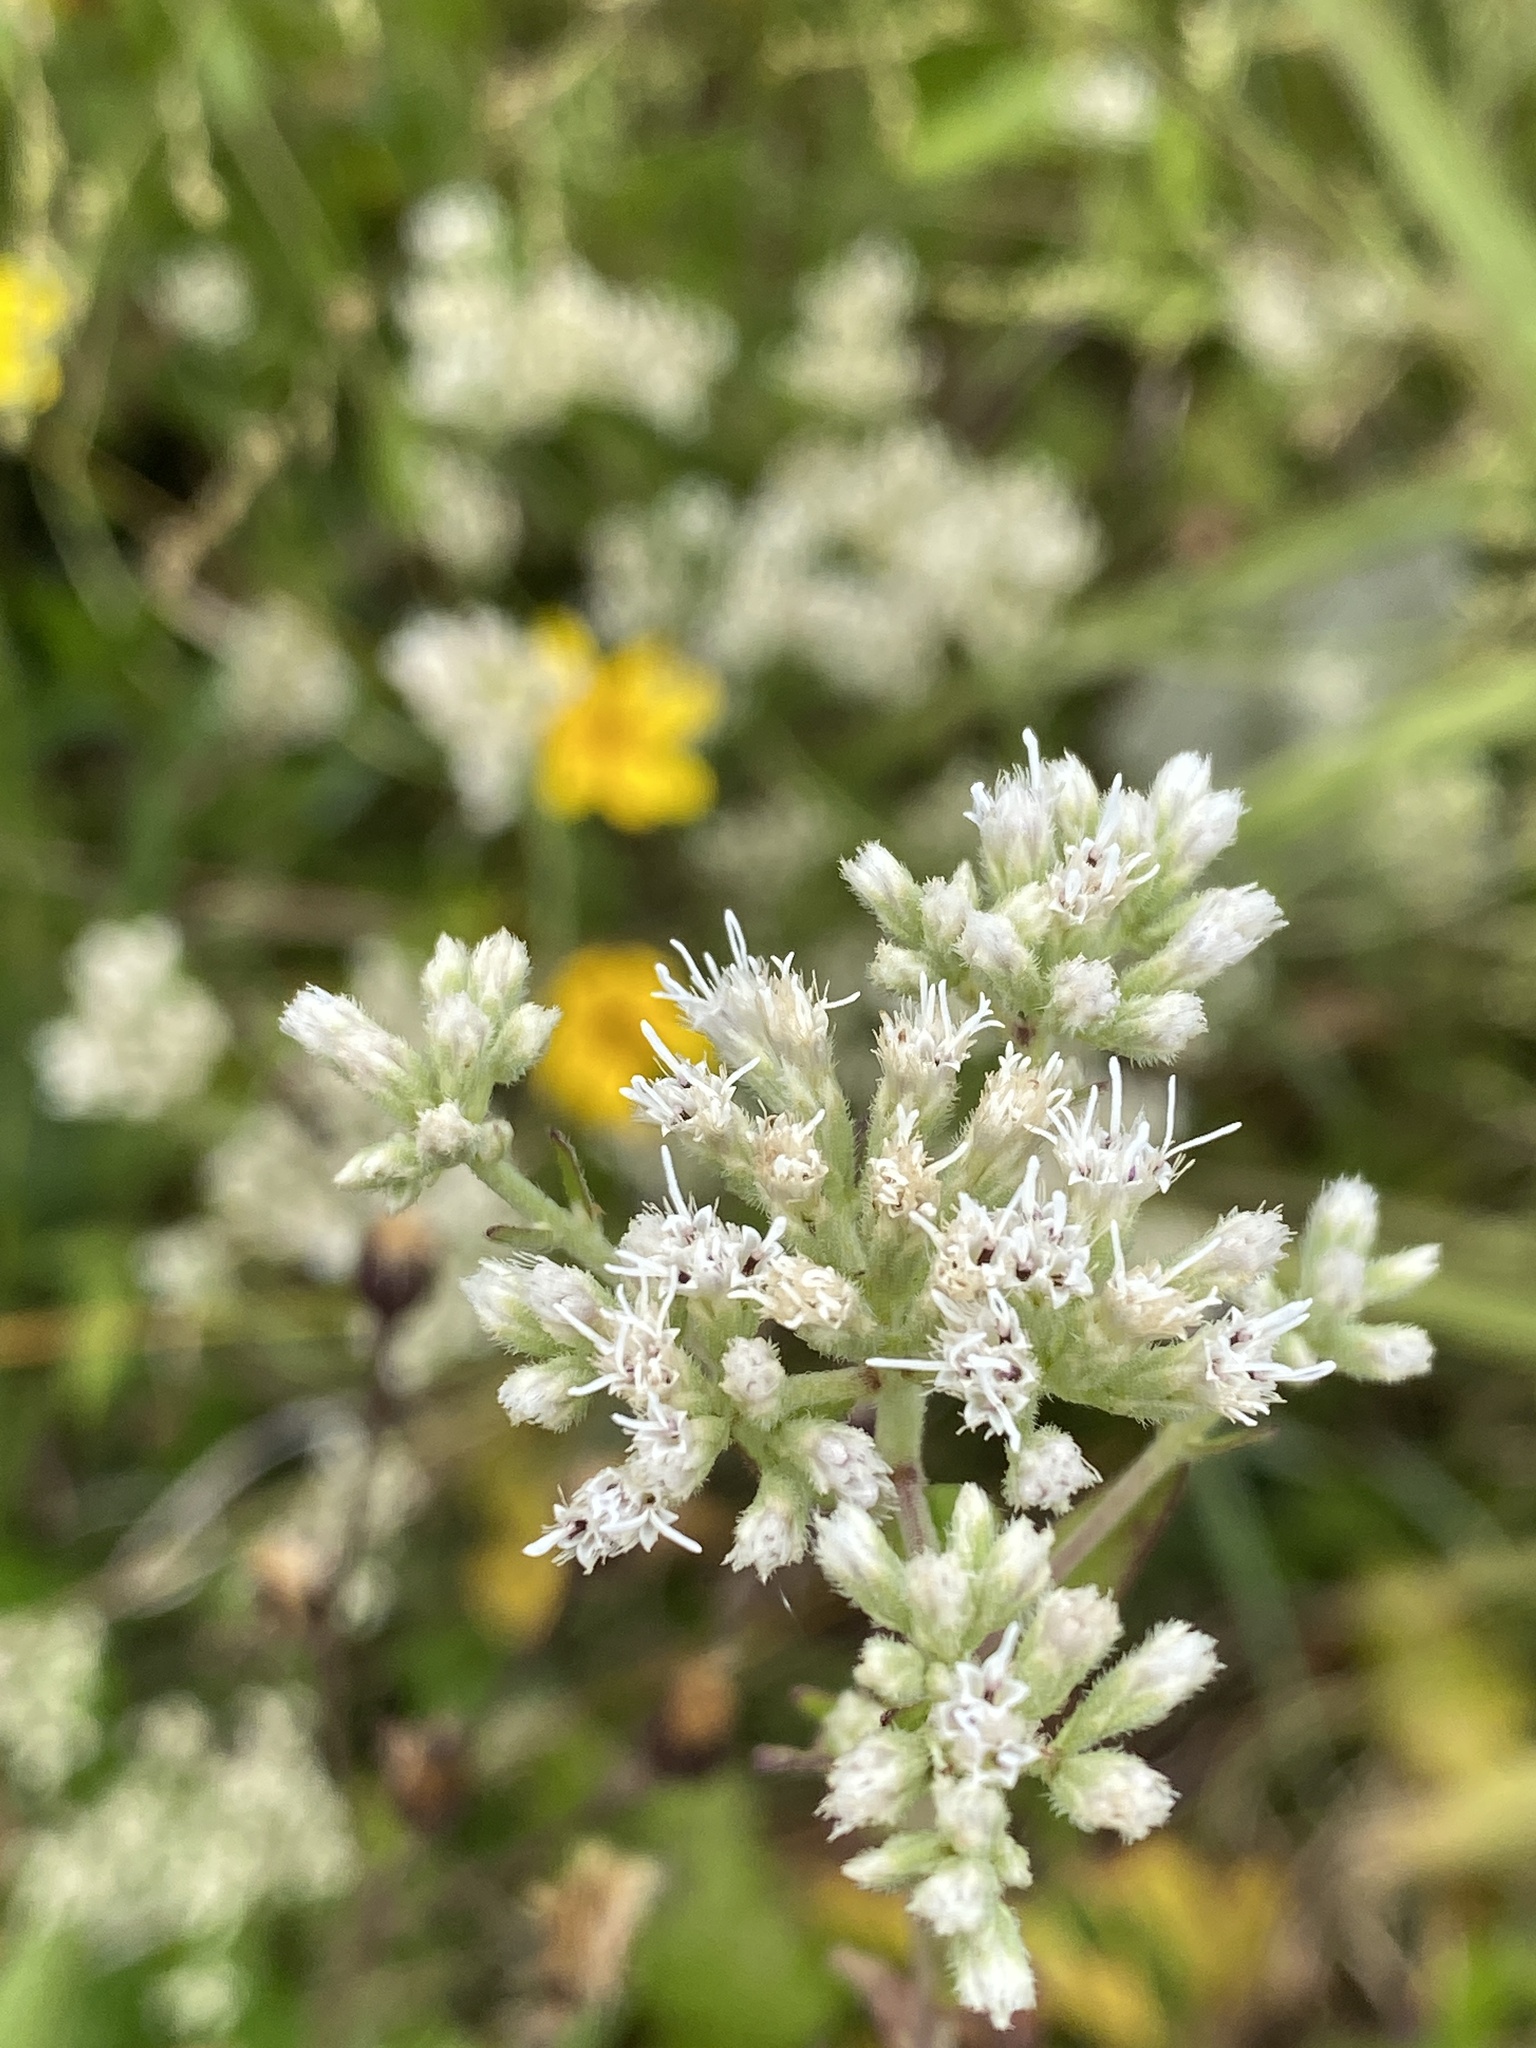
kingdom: Plantae
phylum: Tracheophyta
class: Magnoliopsida
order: Asterales
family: Asteraceae
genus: Eupatorium
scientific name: Eupatorium pilosum
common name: Rough boneset
